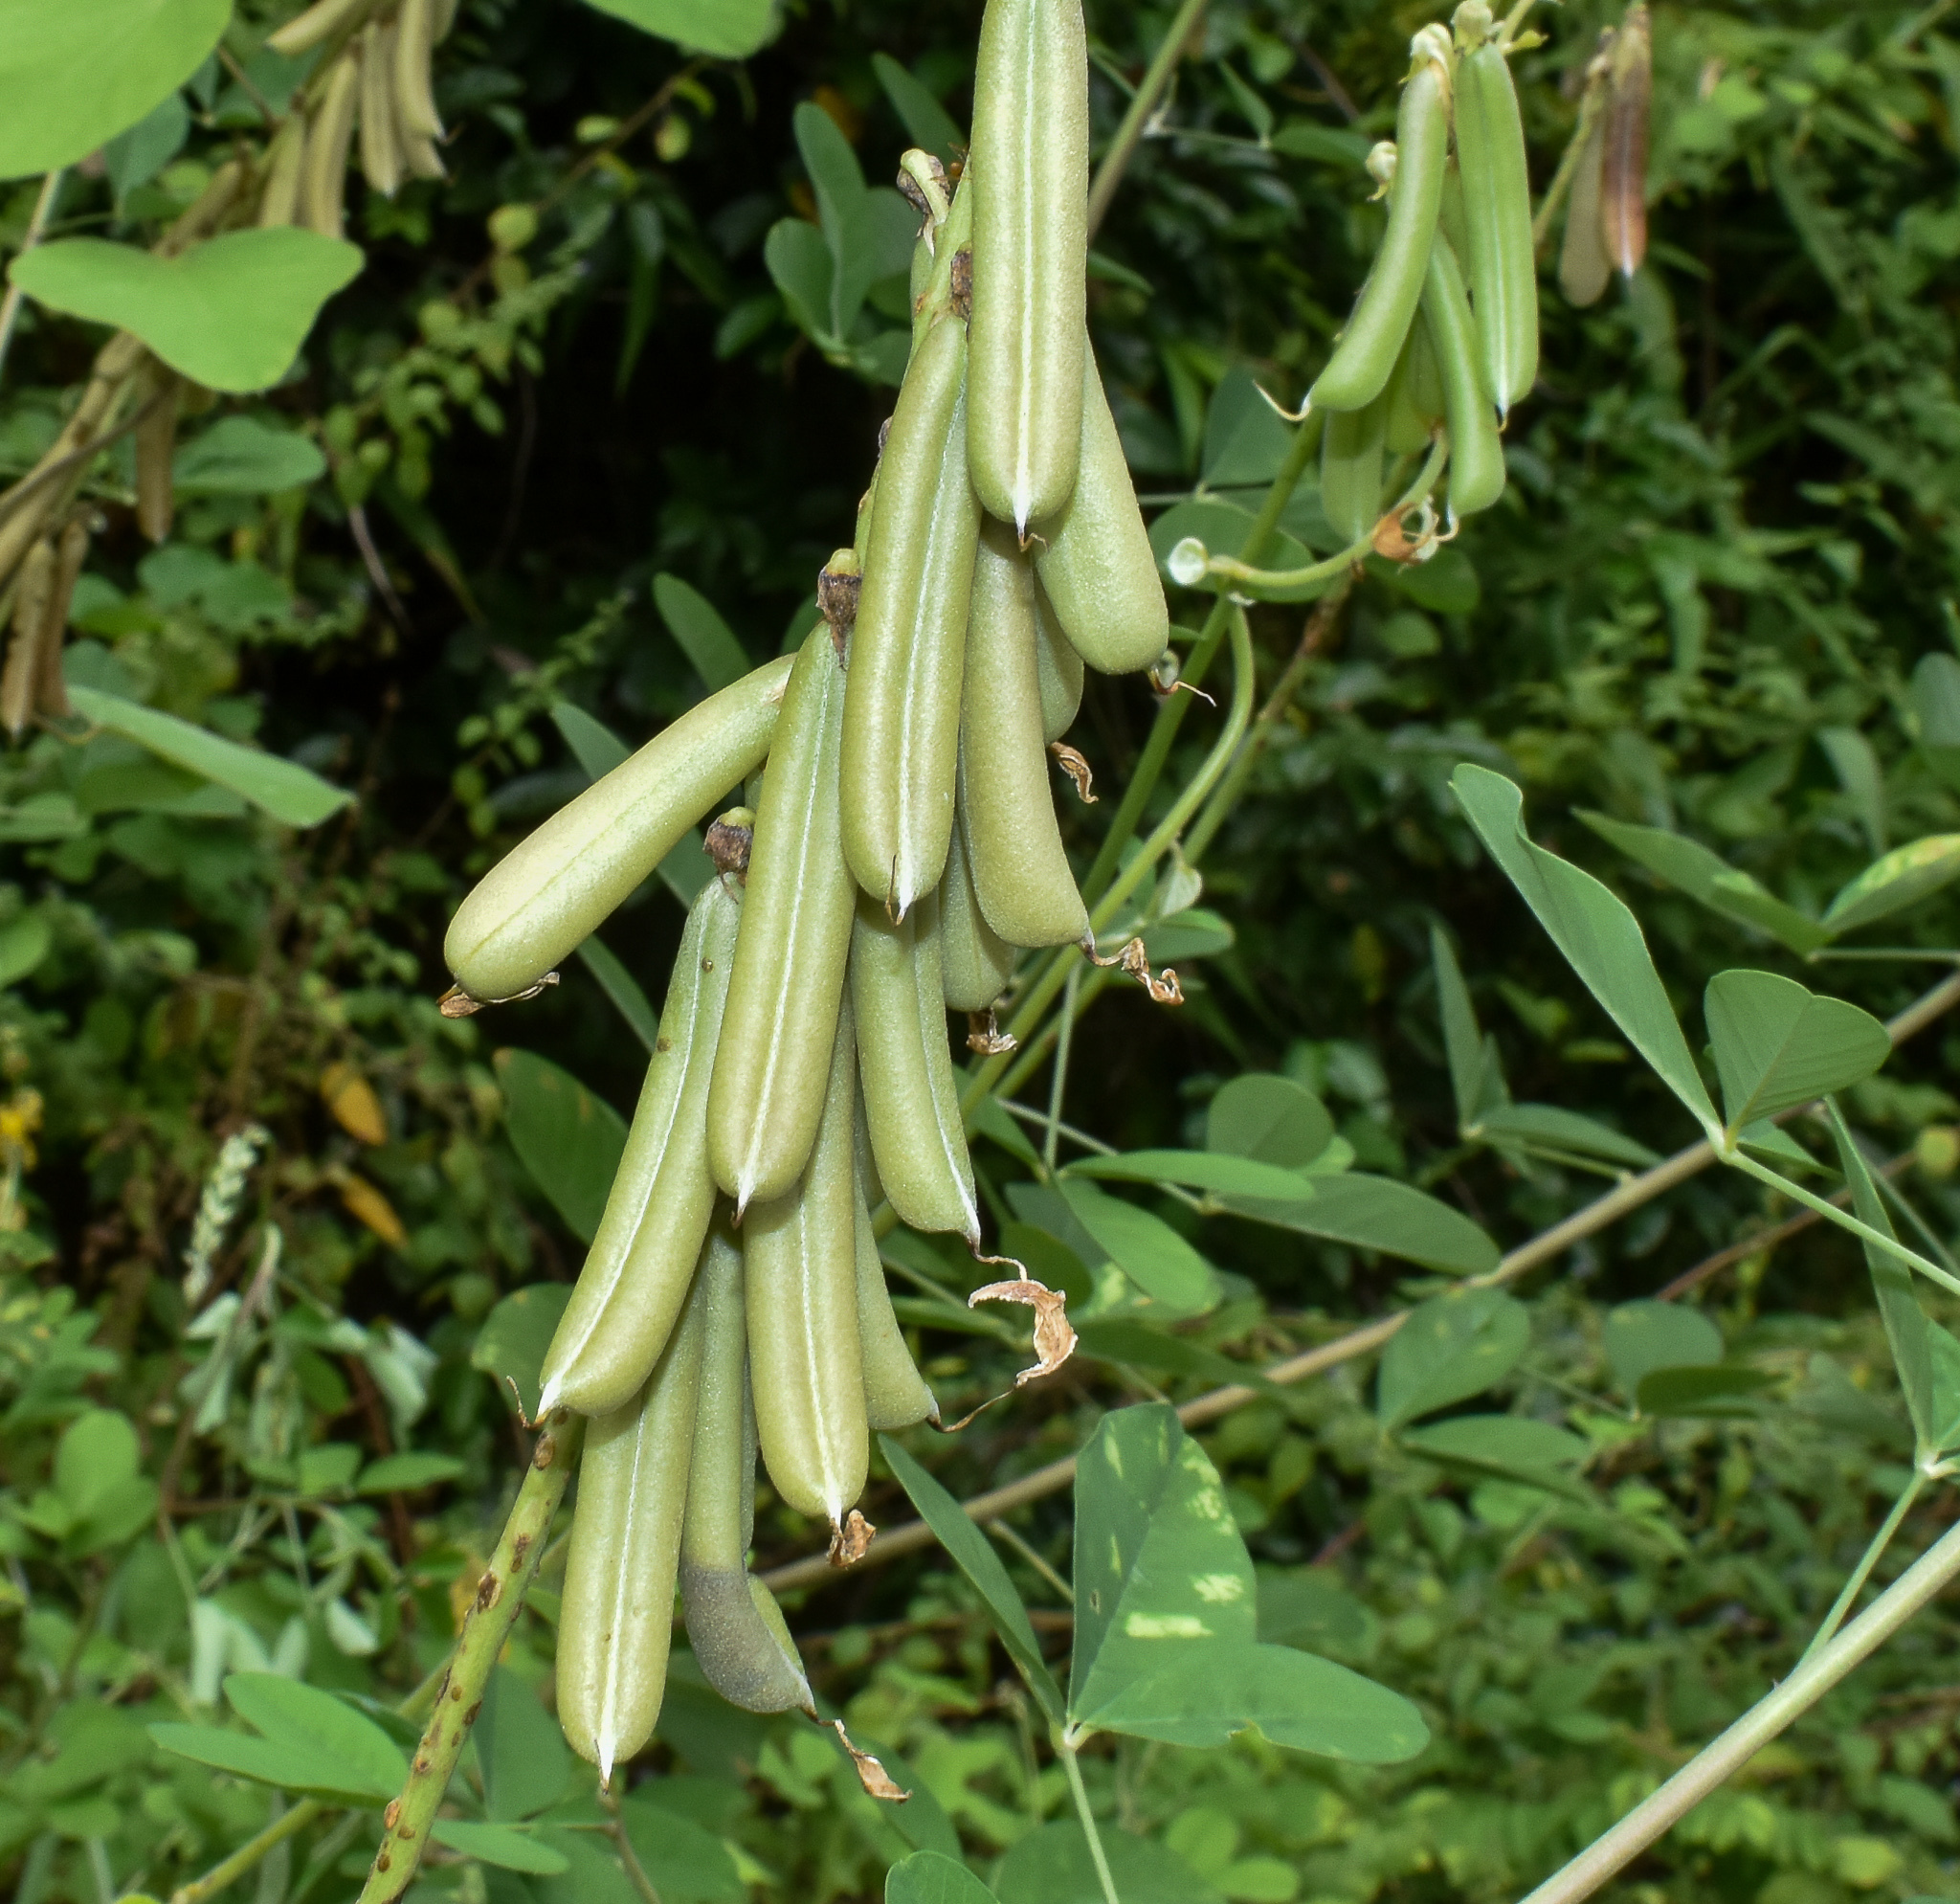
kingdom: Plantae
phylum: Tracheophyta
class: Magnoliopsida
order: Fabales
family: Fabaceae
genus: Crotalaria
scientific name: Crotalaria pallida
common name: Smooth rattlebox
